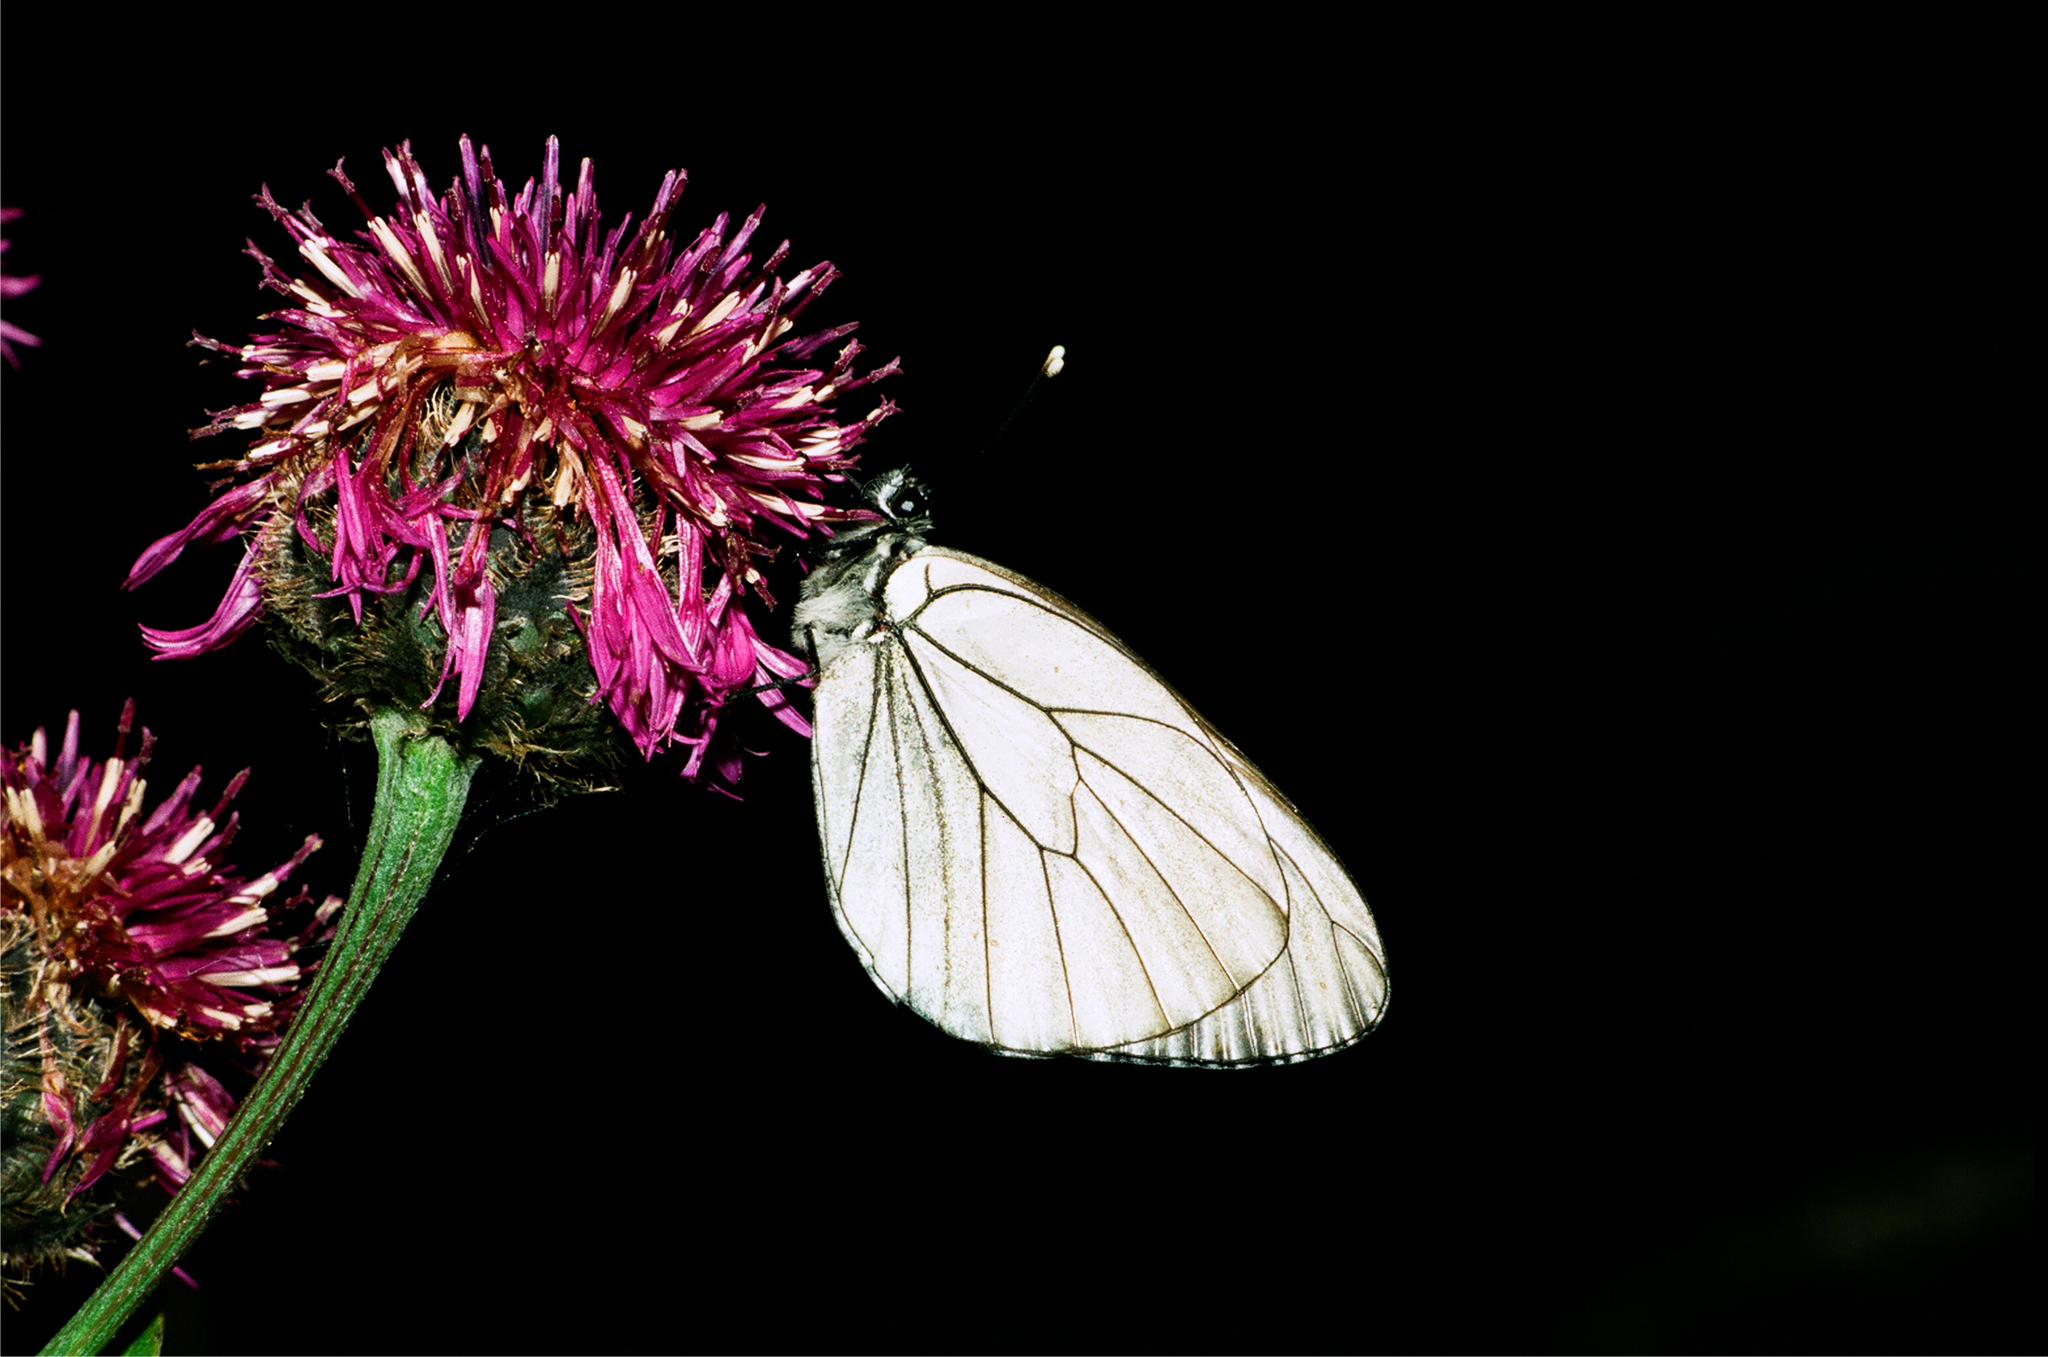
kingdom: Animalia
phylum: Arthropoda
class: Insecta
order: Lepidoptera
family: Pieridae
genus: Aporia
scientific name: Aporia crataegi
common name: Black-veined white
